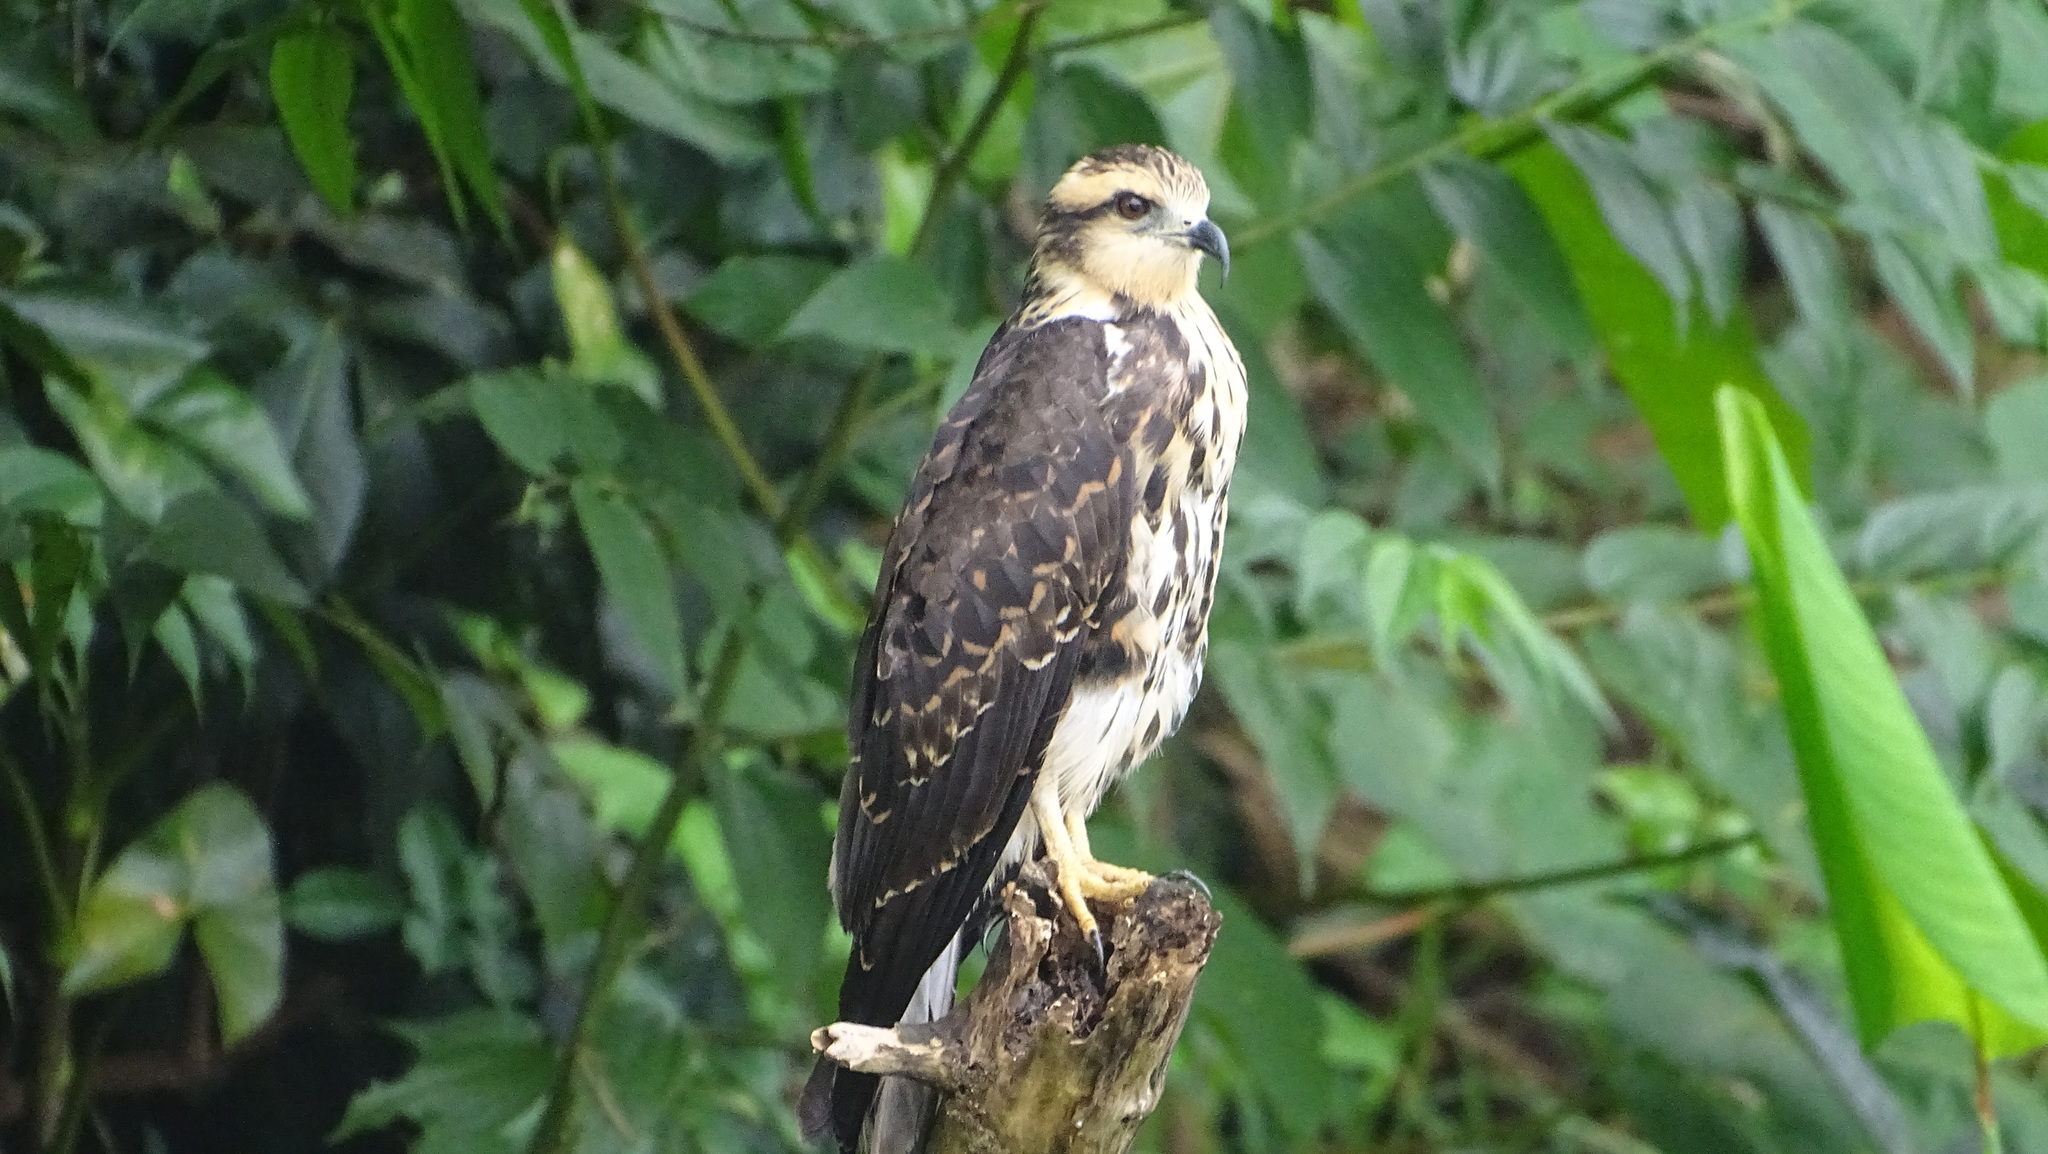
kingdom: Animalia
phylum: Chordata
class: Aves
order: Accipitriformes
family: Accipitridae
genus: Rostrhamus
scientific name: Rostrhamus sociabilis
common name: Snail kite
